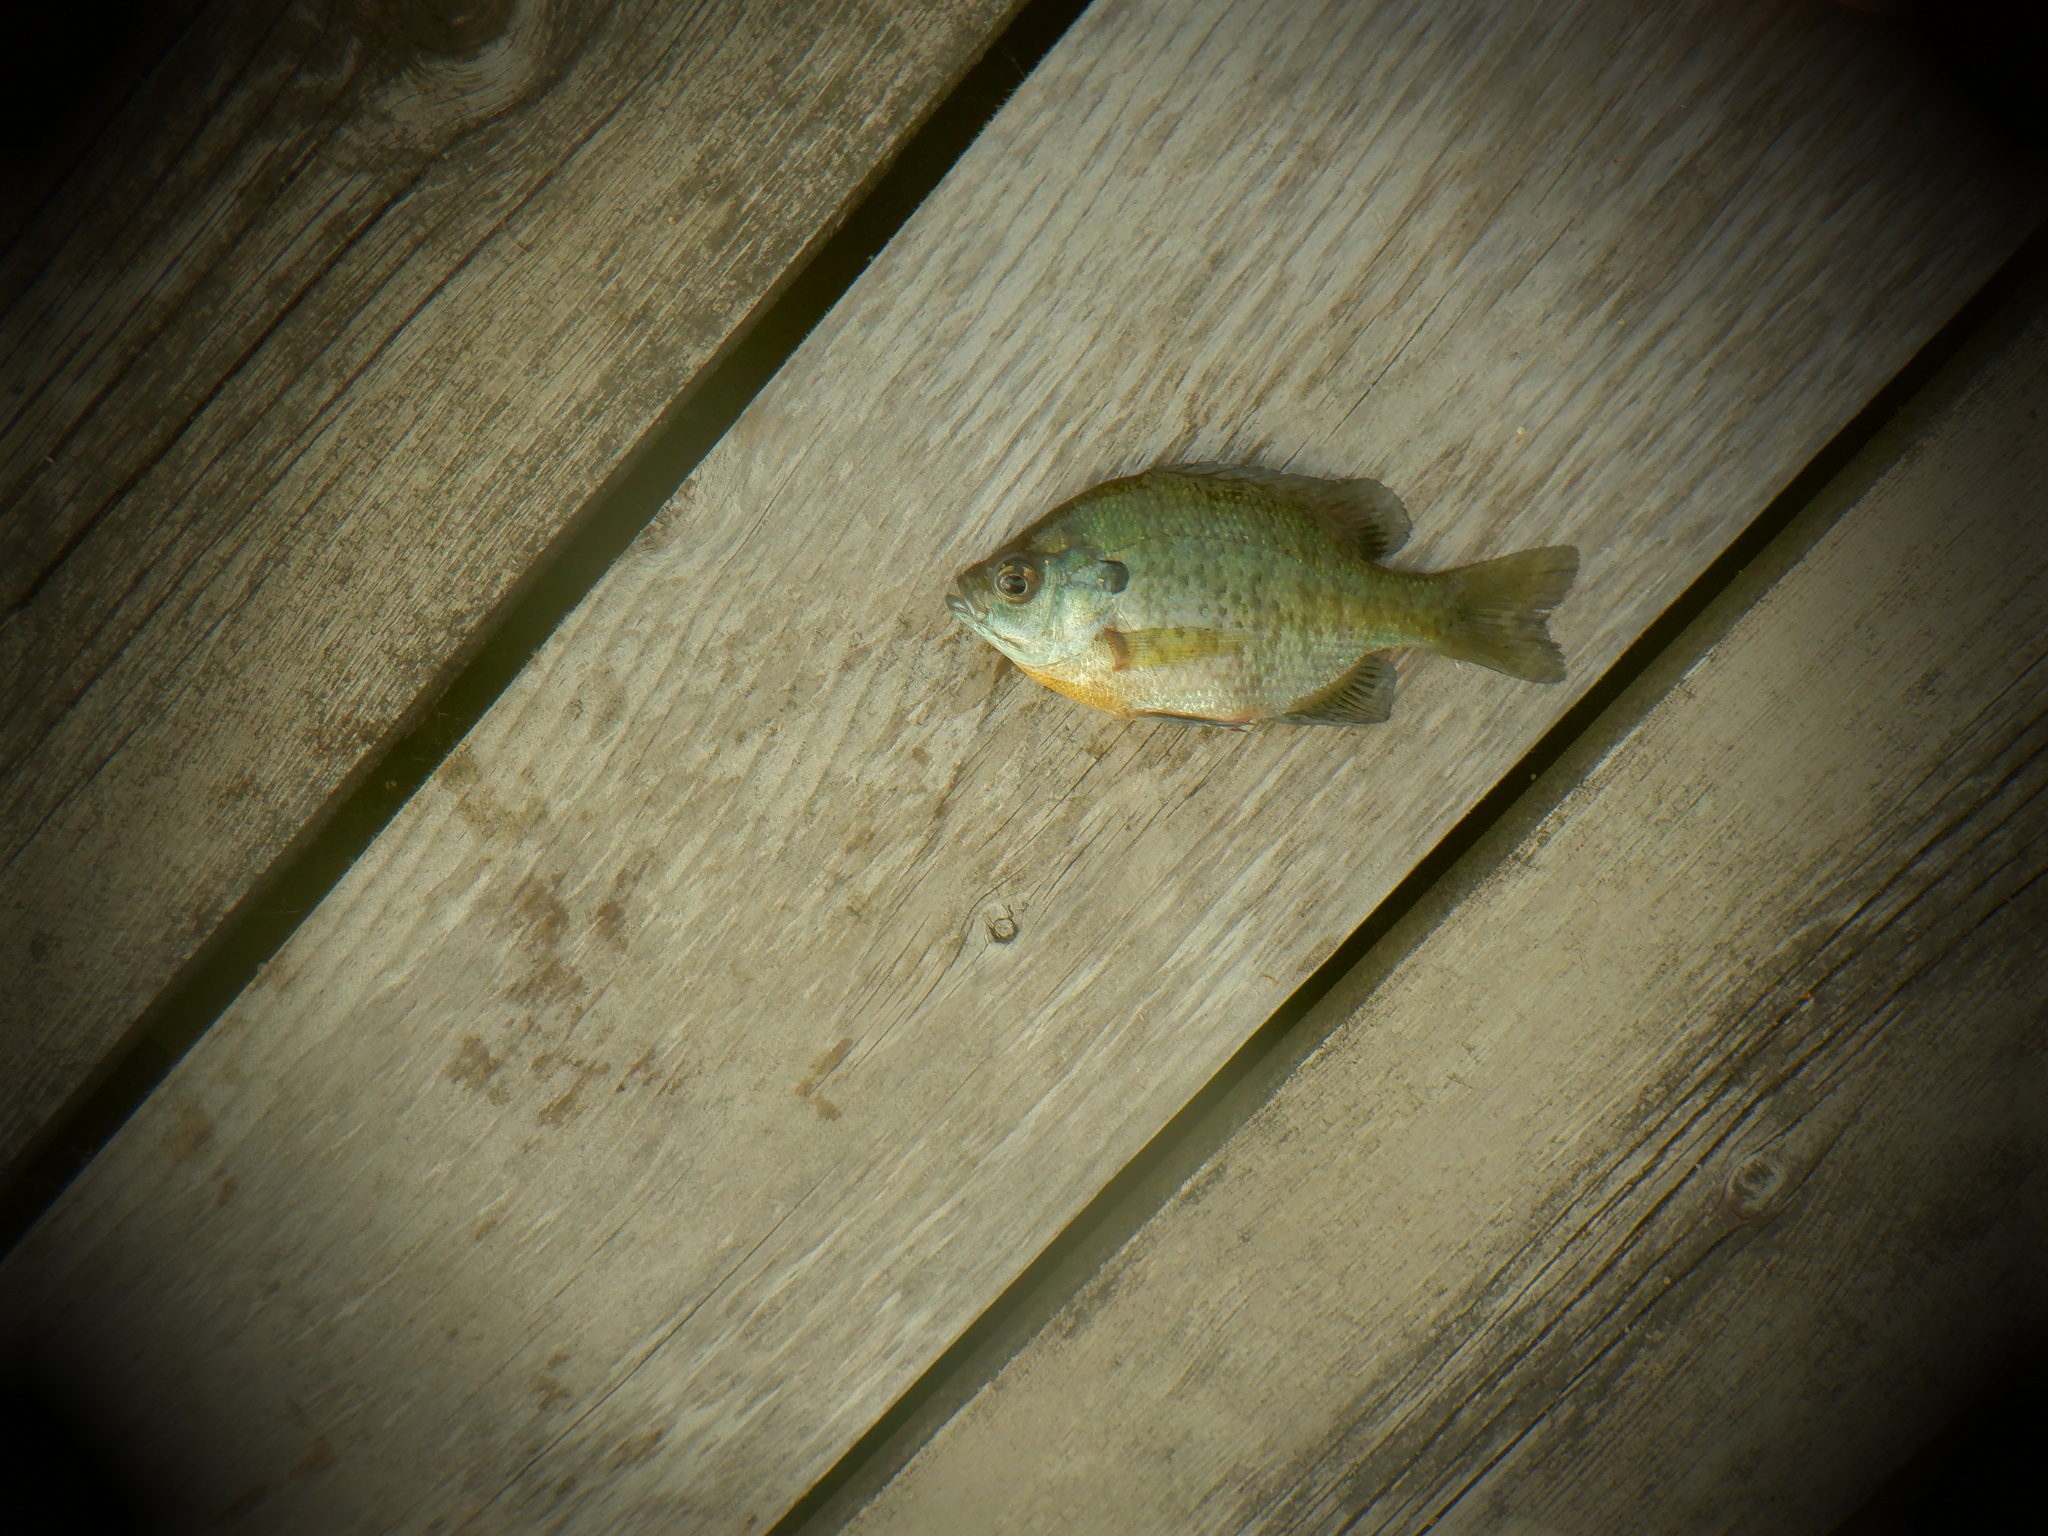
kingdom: Animalia
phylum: Chordata
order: Perciformes
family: Centrarchidae
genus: Lepomis
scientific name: Lepomis macrochirus
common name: Bluegill
